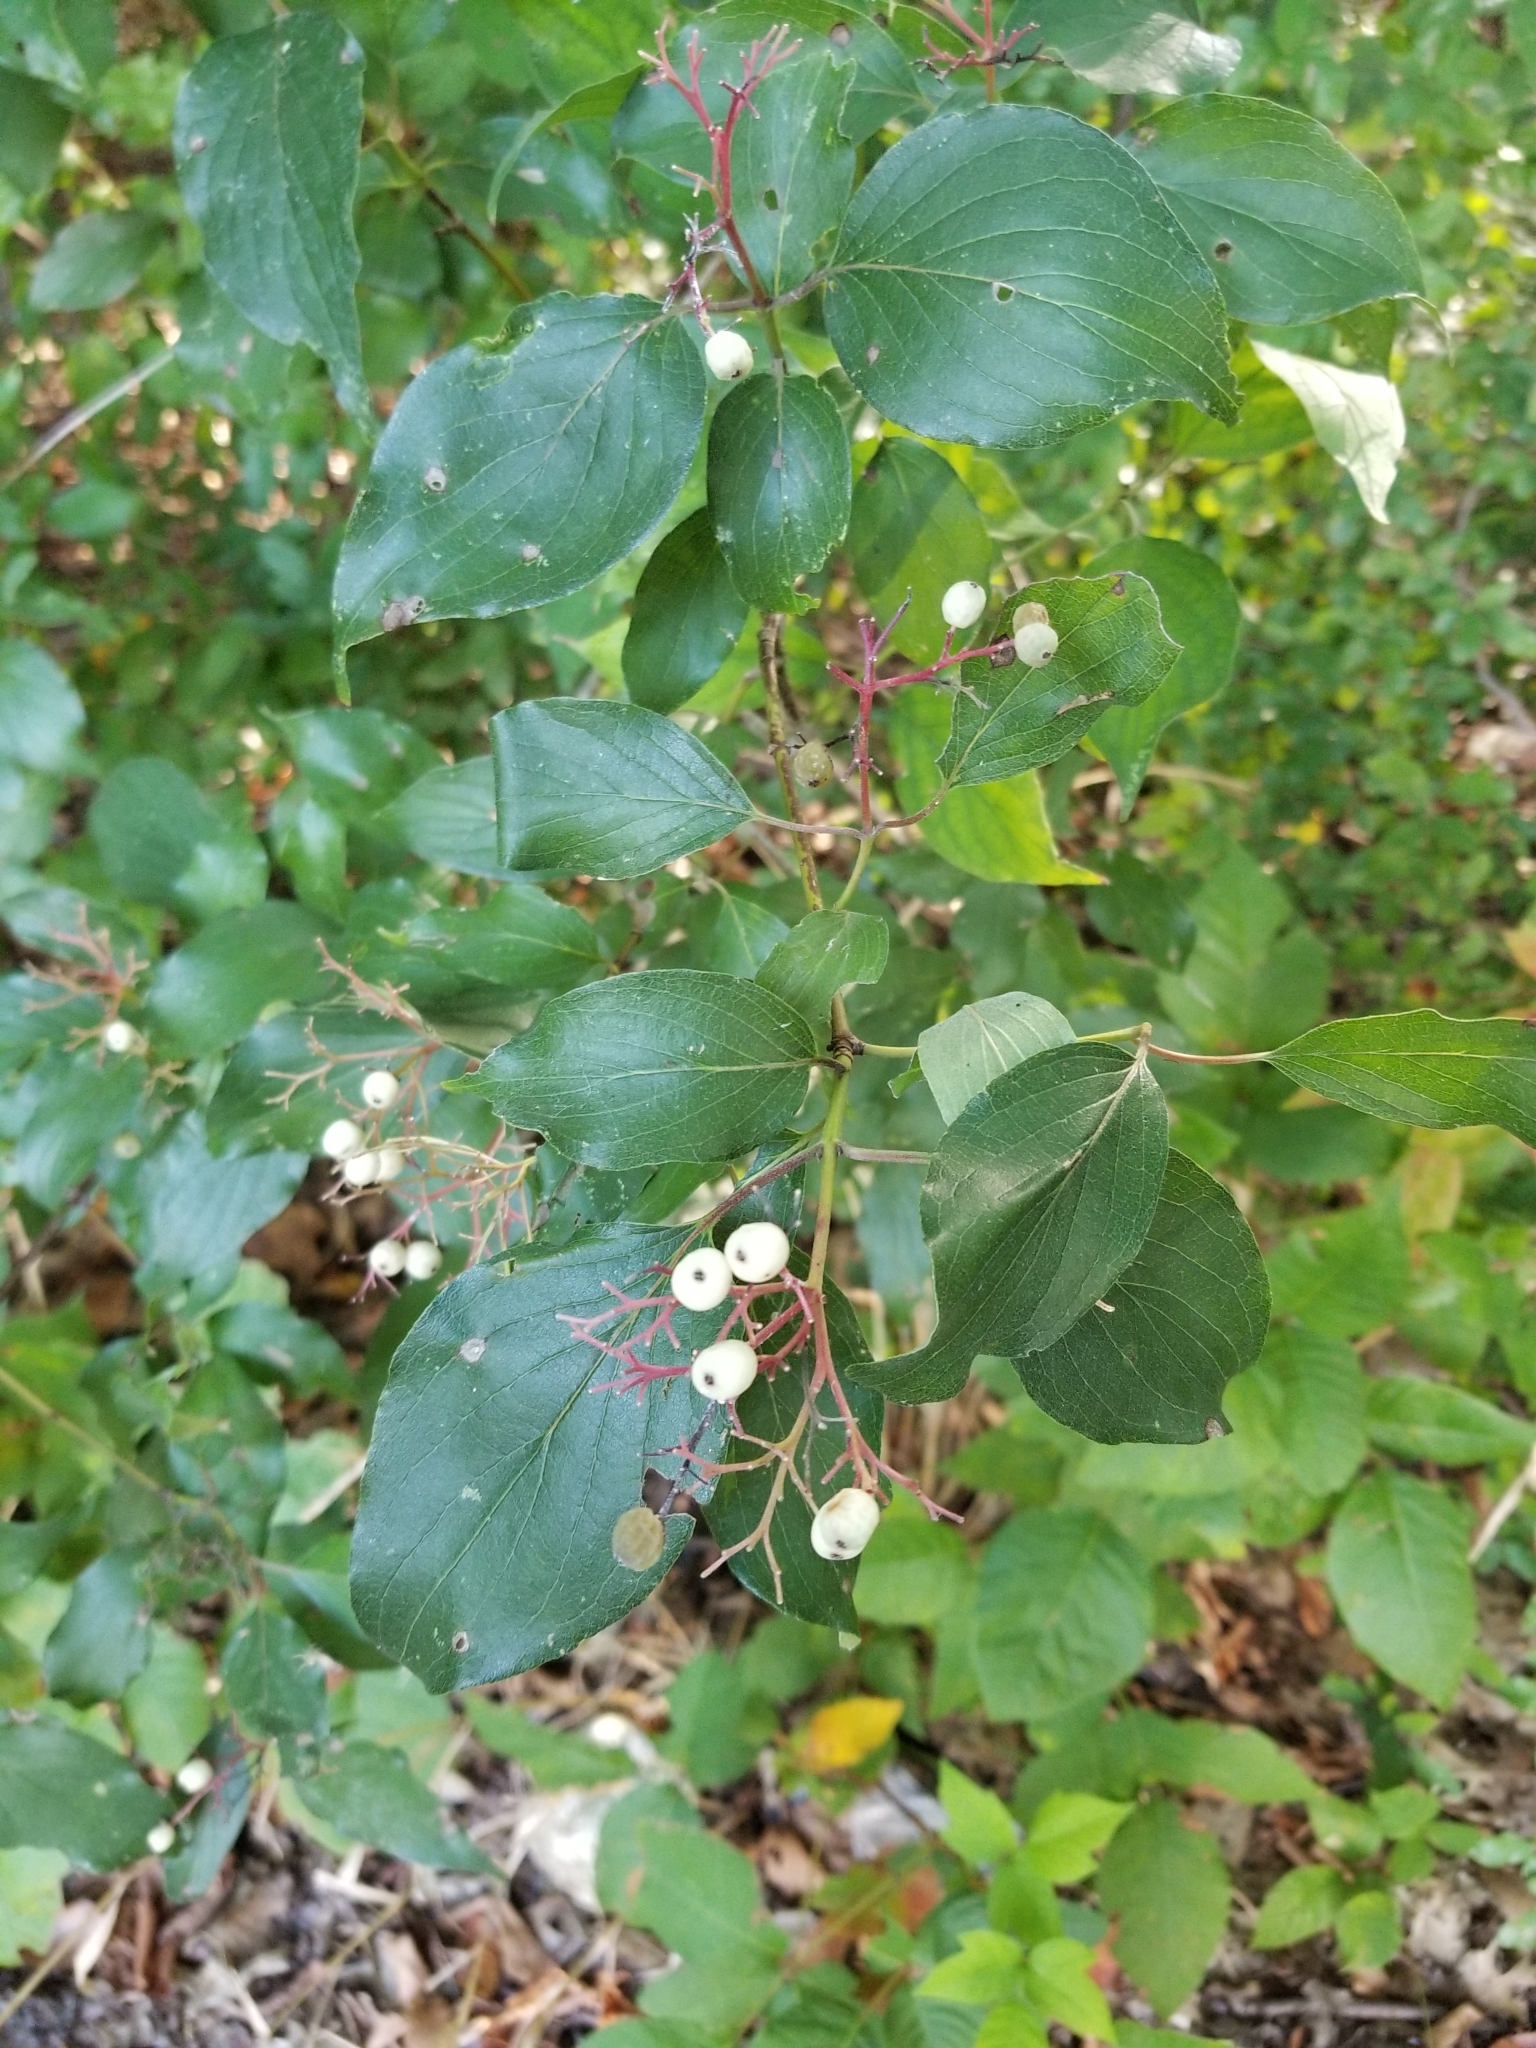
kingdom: Plantae
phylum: Tracheophyta
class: Magnoliopsida
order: Cornales
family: Cornaceae
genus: Cornus
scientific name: Cornus drummondii
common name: Rough-leaf dogwood
